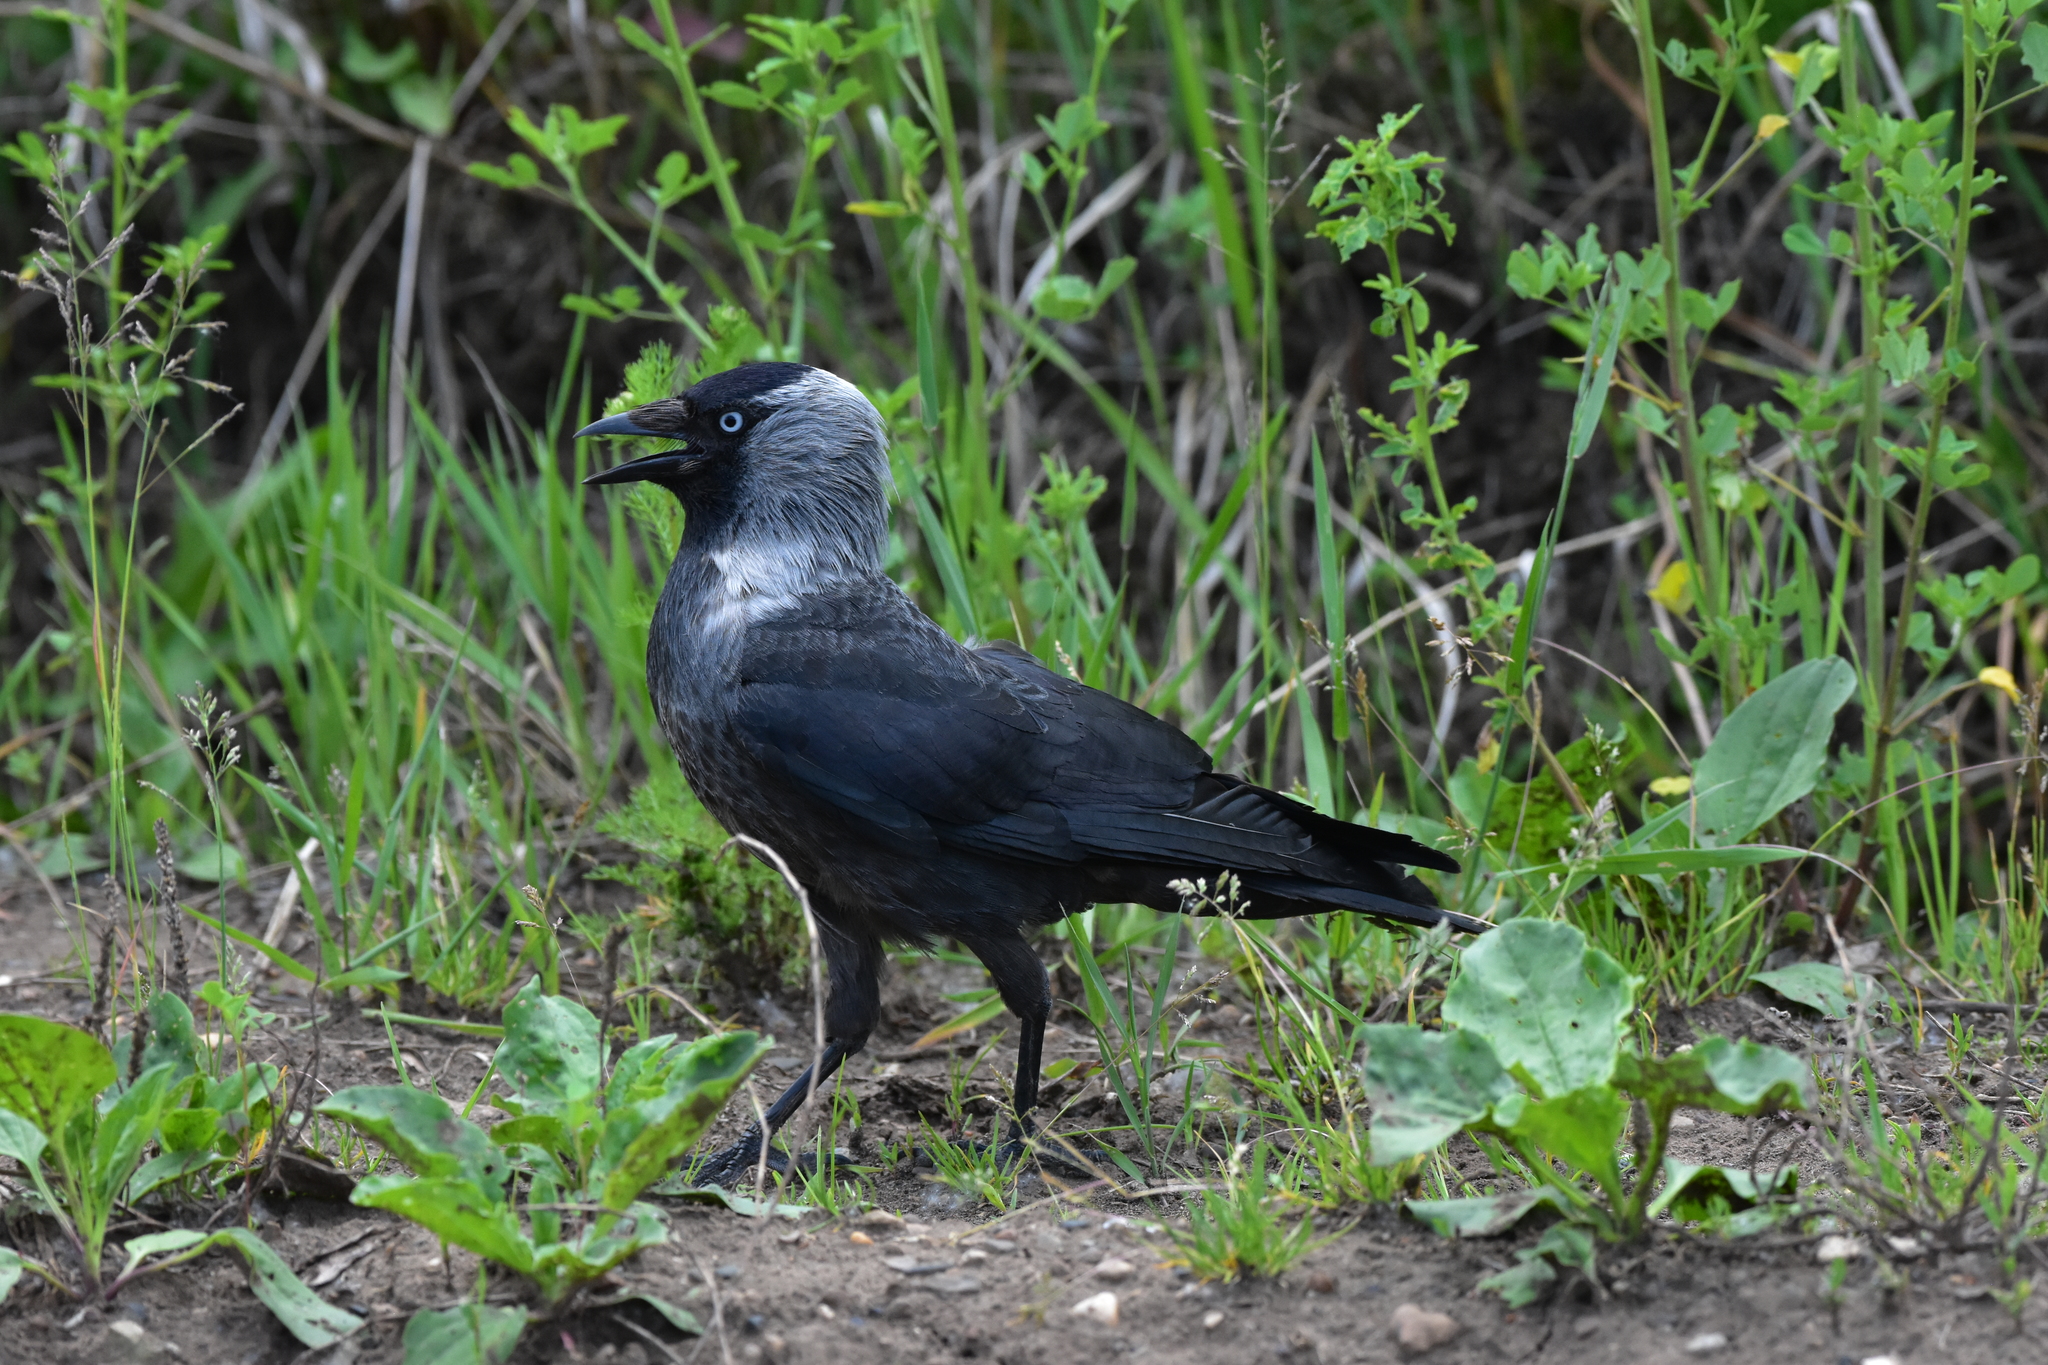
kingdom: Animalia
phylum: Chordata
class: Aves
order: Passeriformes
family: Corvidae
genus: Coloeus
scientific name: Coloeus monedula
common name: Western jackdaw
